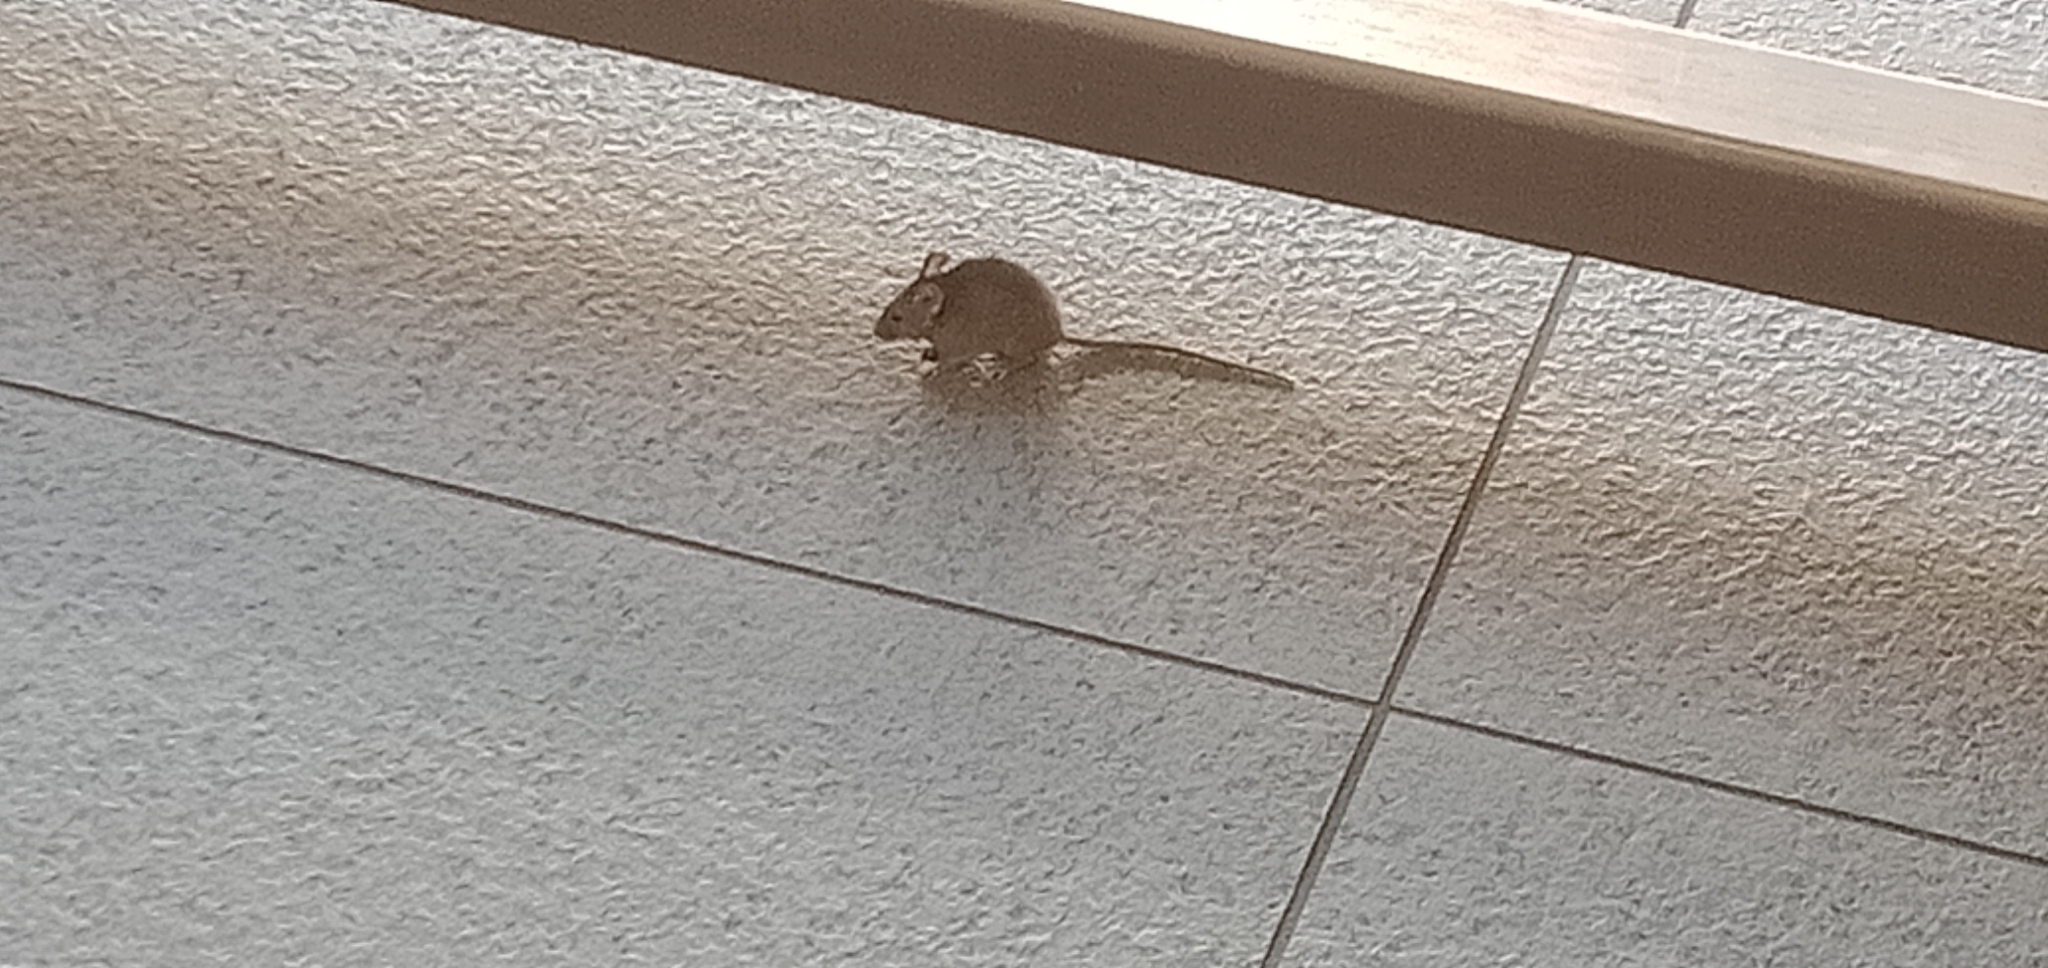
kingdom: Animalia
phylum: Chordata
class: Mammalia
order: Rodentia
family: Muridae
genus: Mus
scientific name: Mus musculus
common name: House mouse
